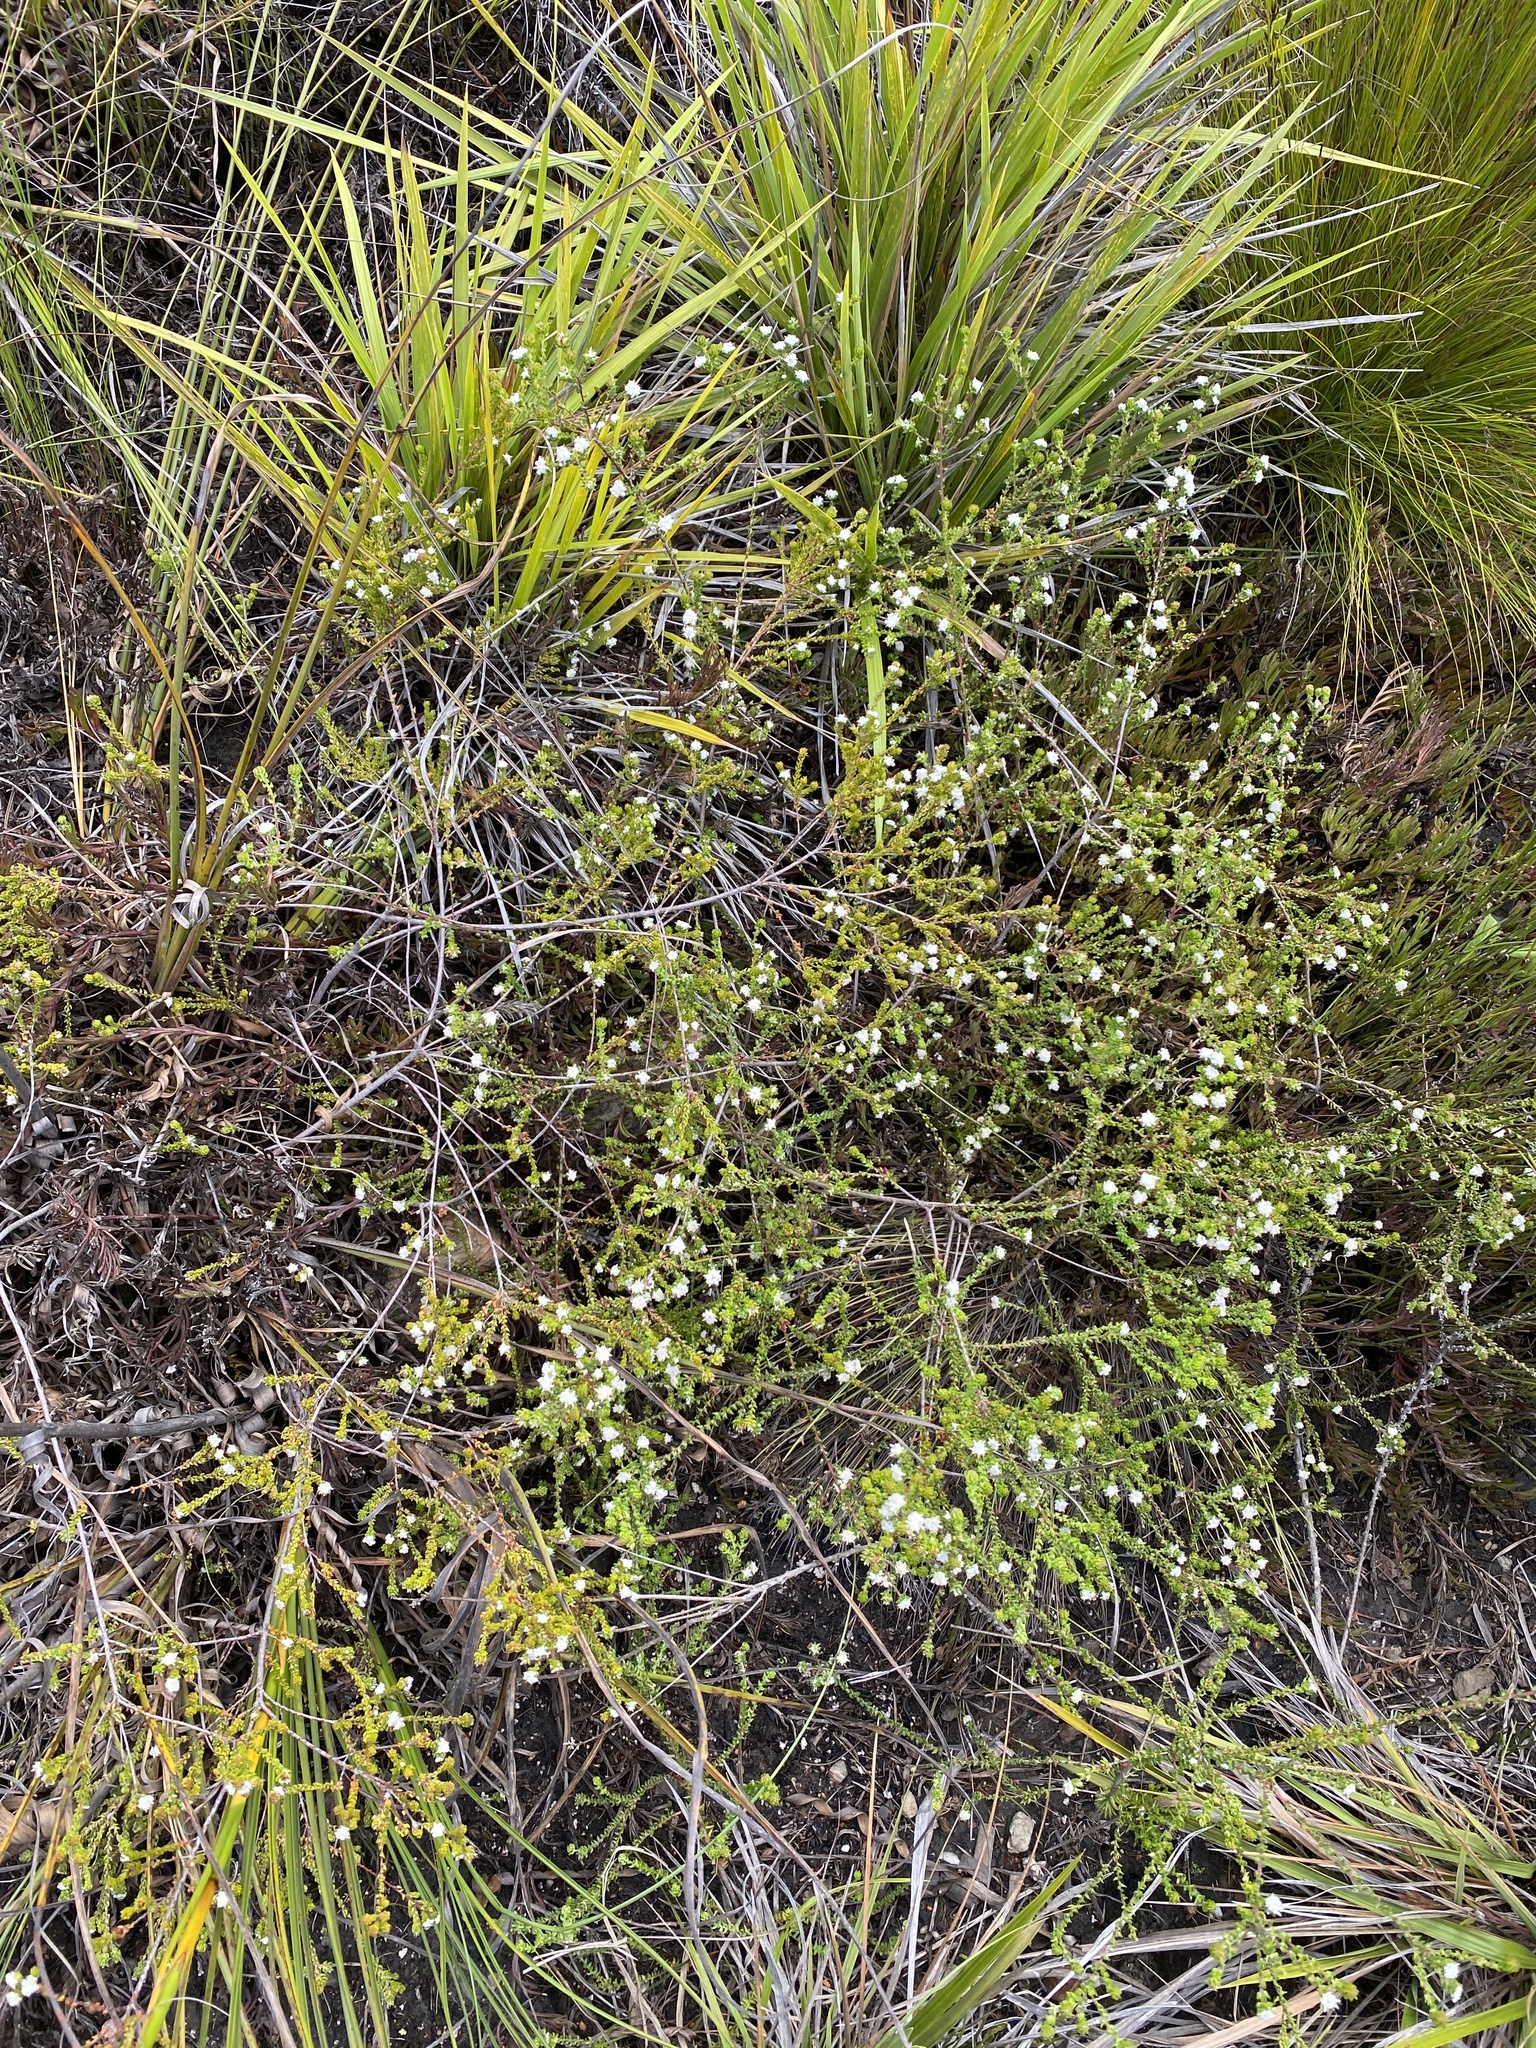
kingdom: Plantae
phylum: Tracheophyta
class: Magnoliopsida
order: Rosales
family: Rhamnaceae
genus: Phylica
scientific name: Phylica debilis
